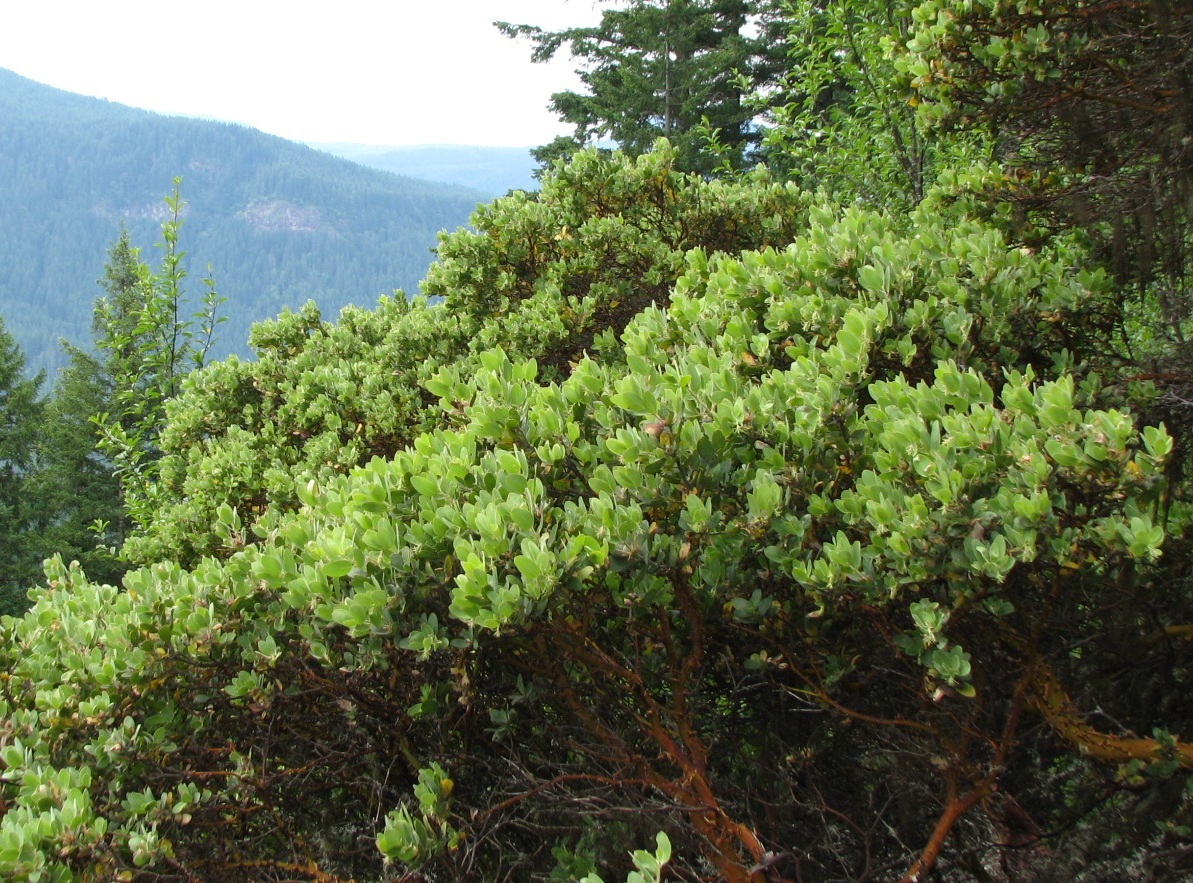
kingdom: Plantae
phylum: Tracheophyta
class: Magnoliopsida
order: Ericales
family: Ericaceae
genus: Arctostaphylos
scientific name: Arctostaphylos columbiana
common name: Bristly bearberry
